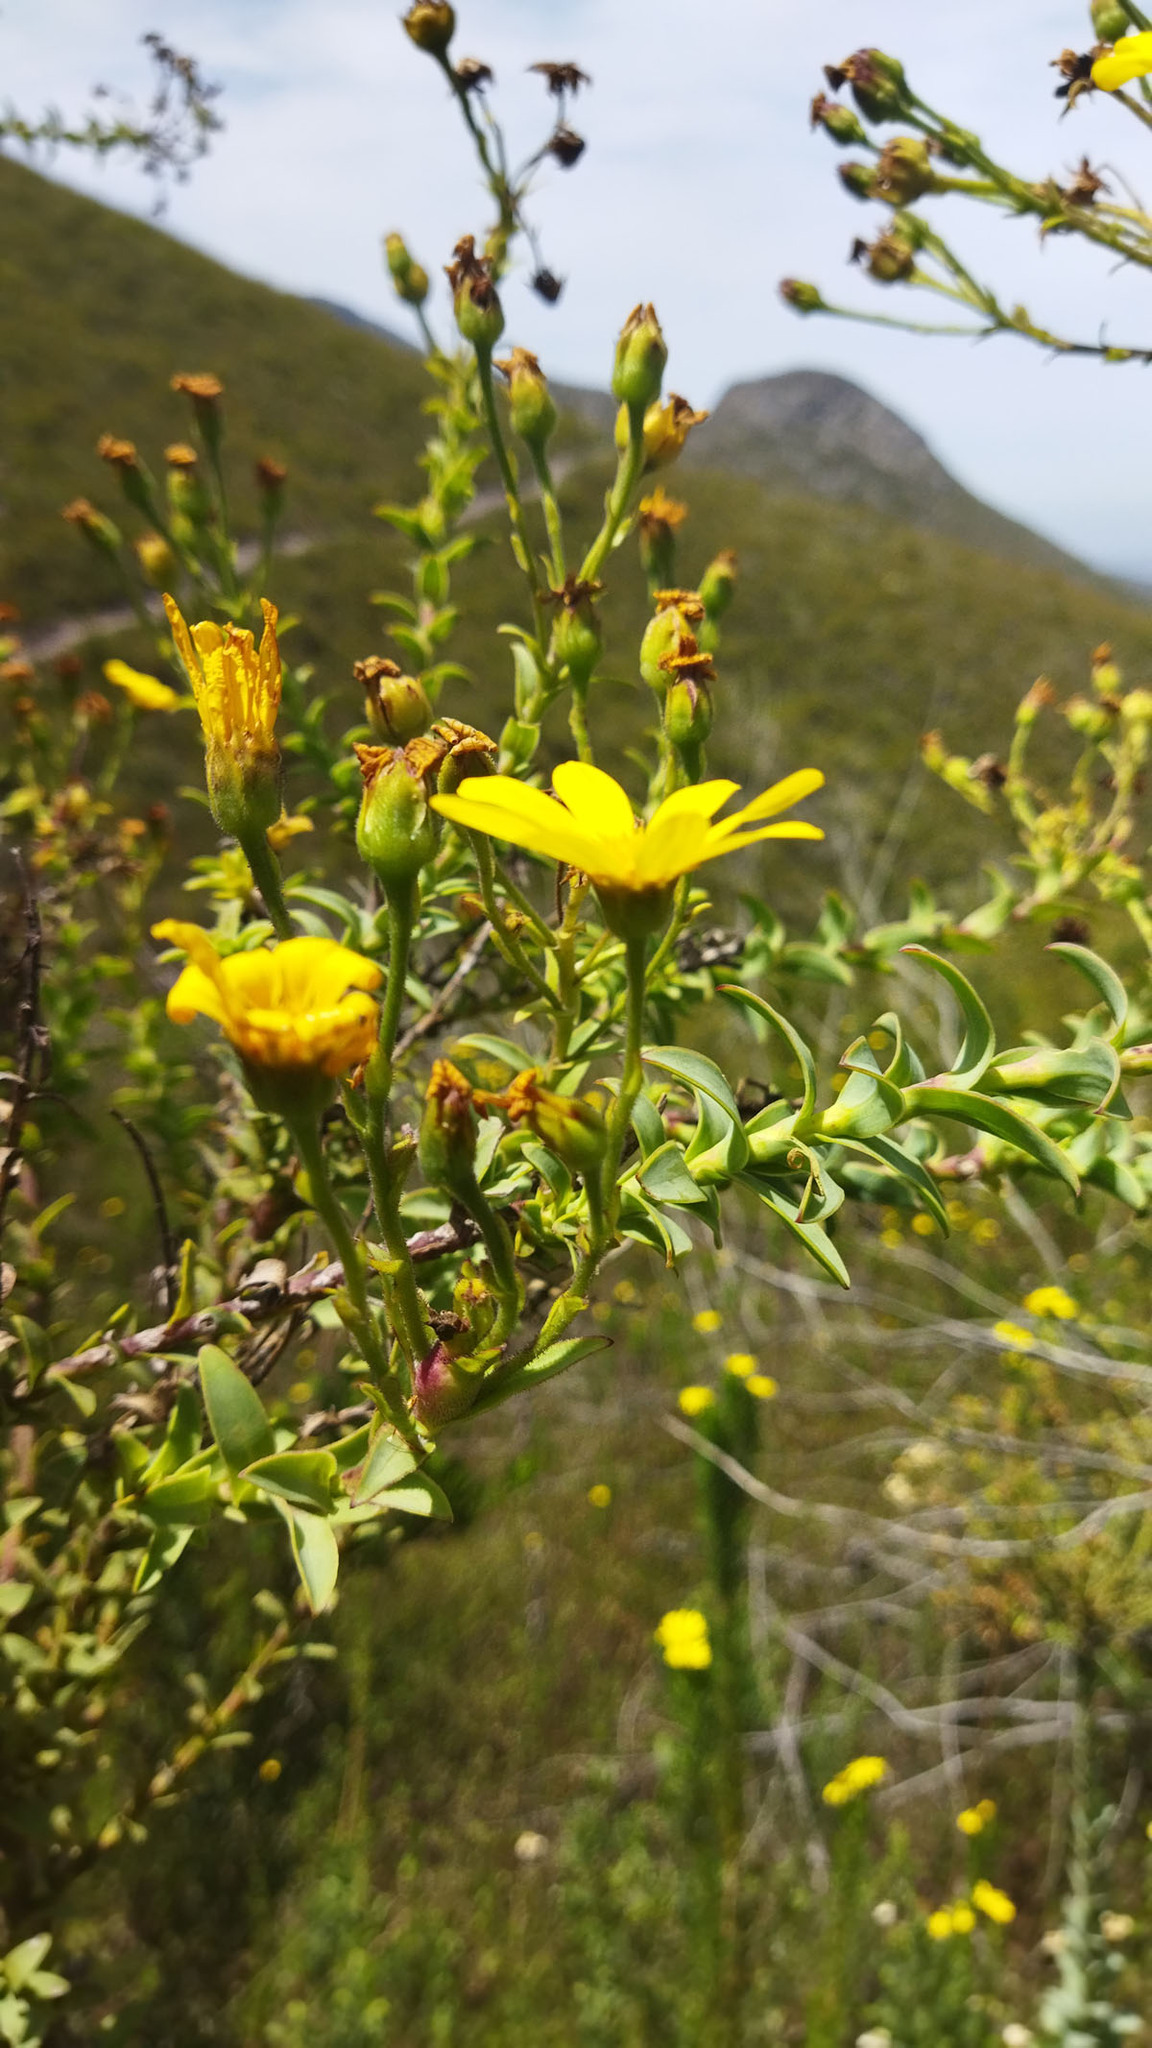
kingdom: Plantae
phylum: Tracheophyta
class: Magnoliopsida
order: Asterales
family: Asteraceae
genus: Osteospermum
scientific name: Osteospermum corymbosum
